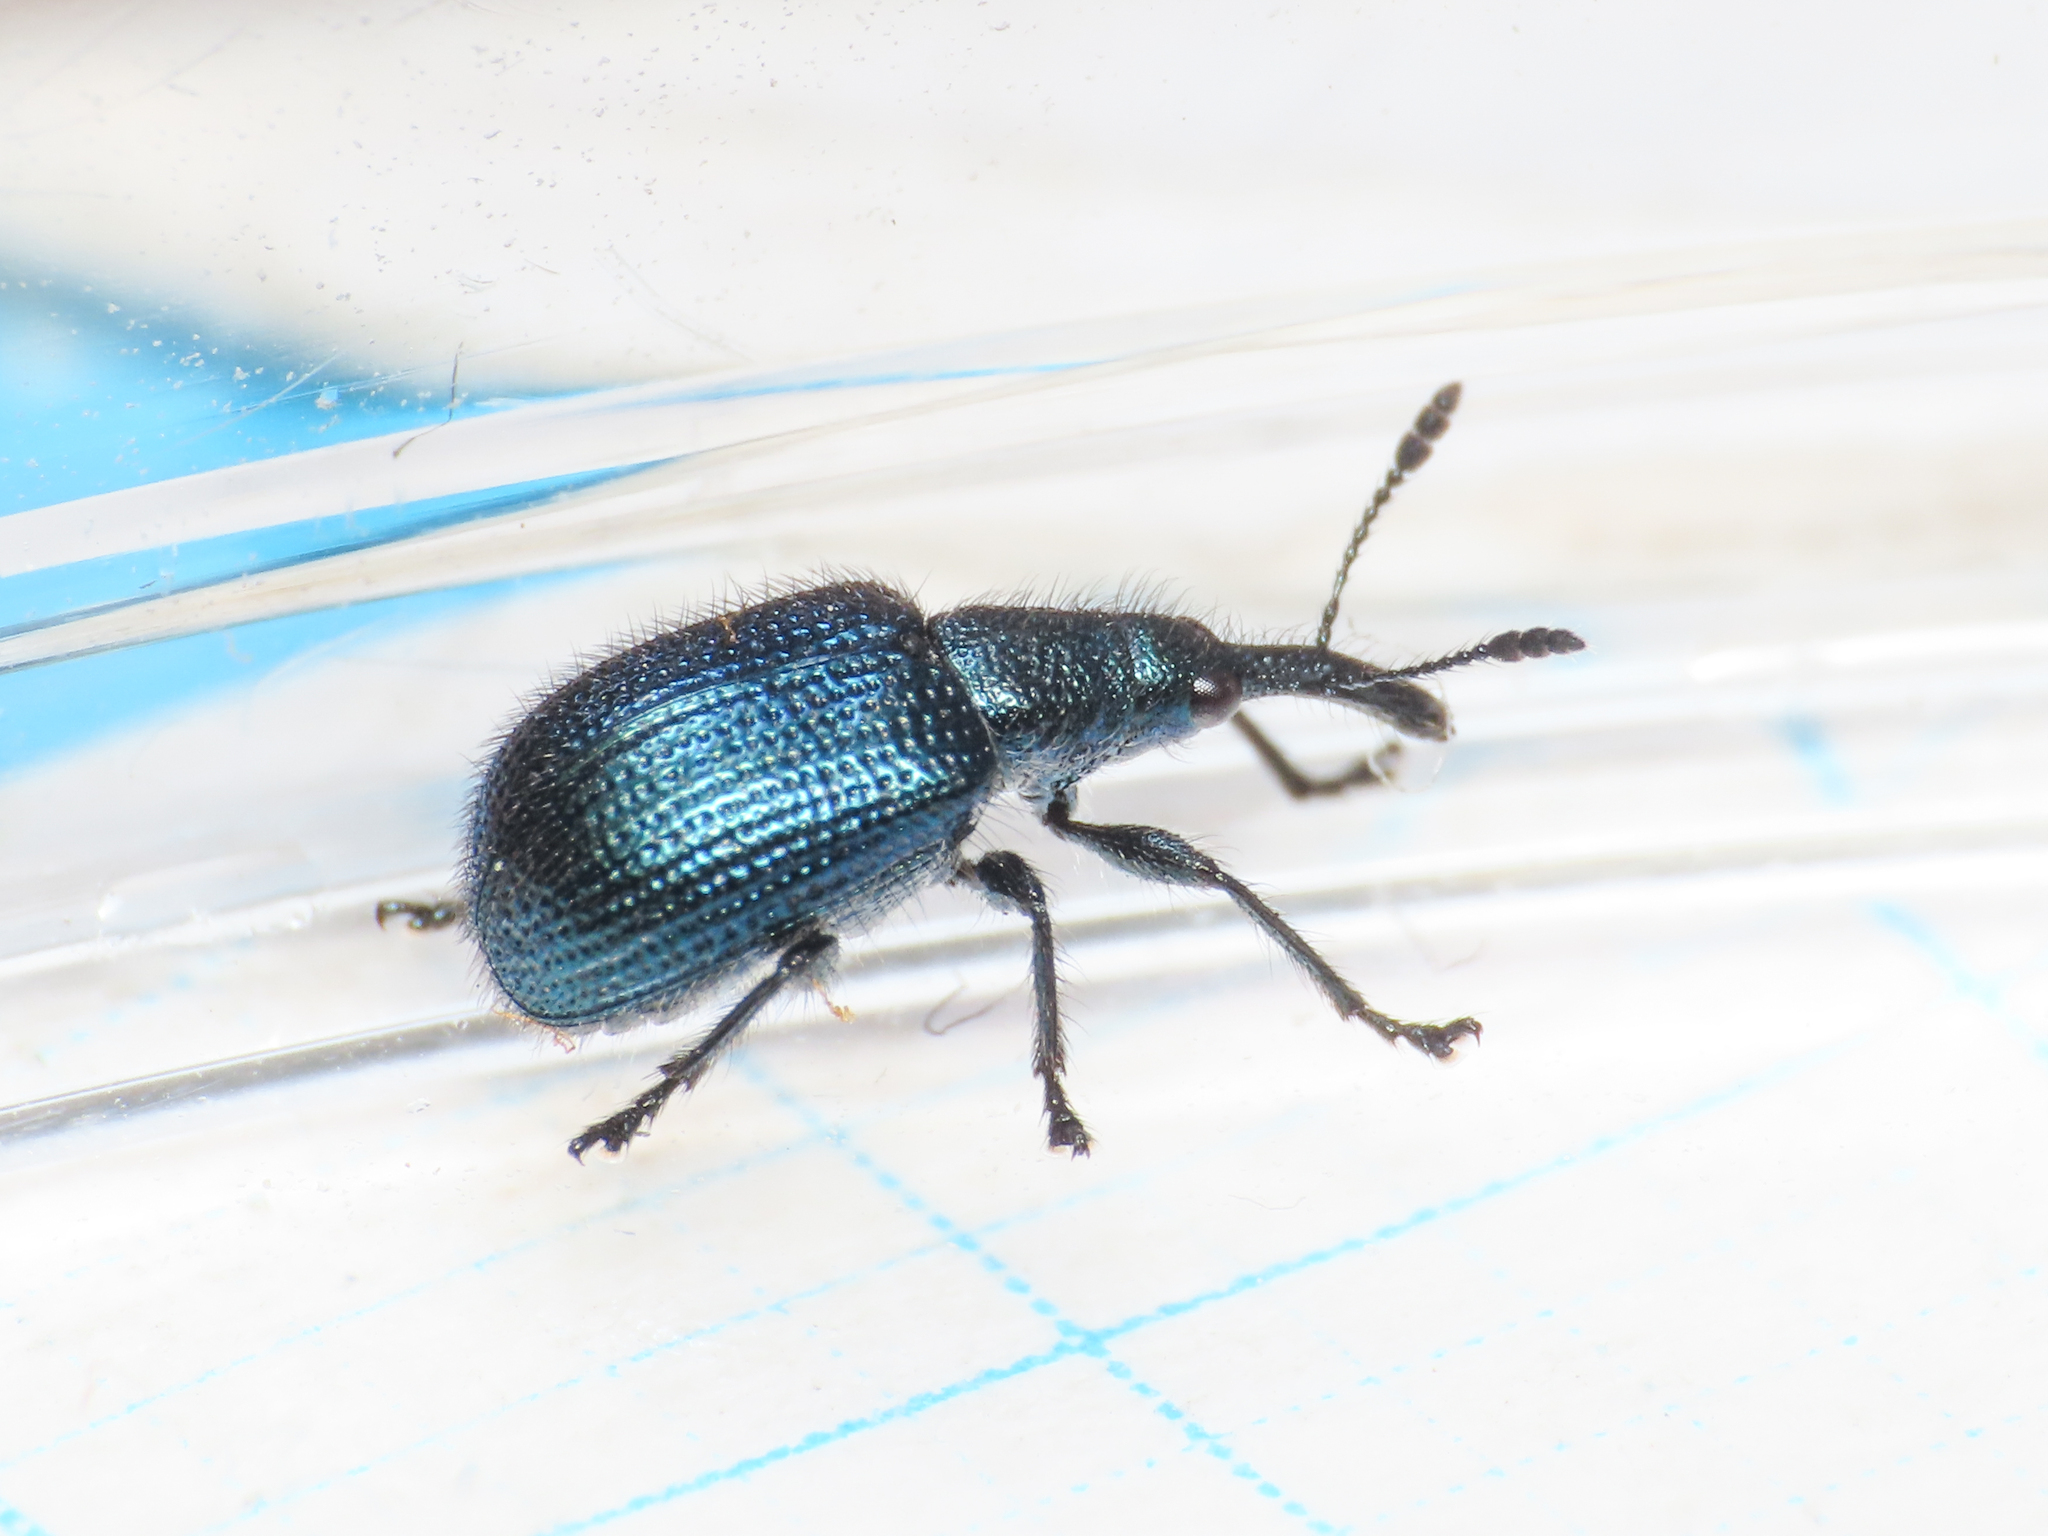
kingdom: Animalia
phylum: Arthropoda
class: Insecta
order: Coleoptera
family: Attelabidae
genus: Involvulus
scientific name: Involvulus icosandriae
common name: Twig-cutting weevil
